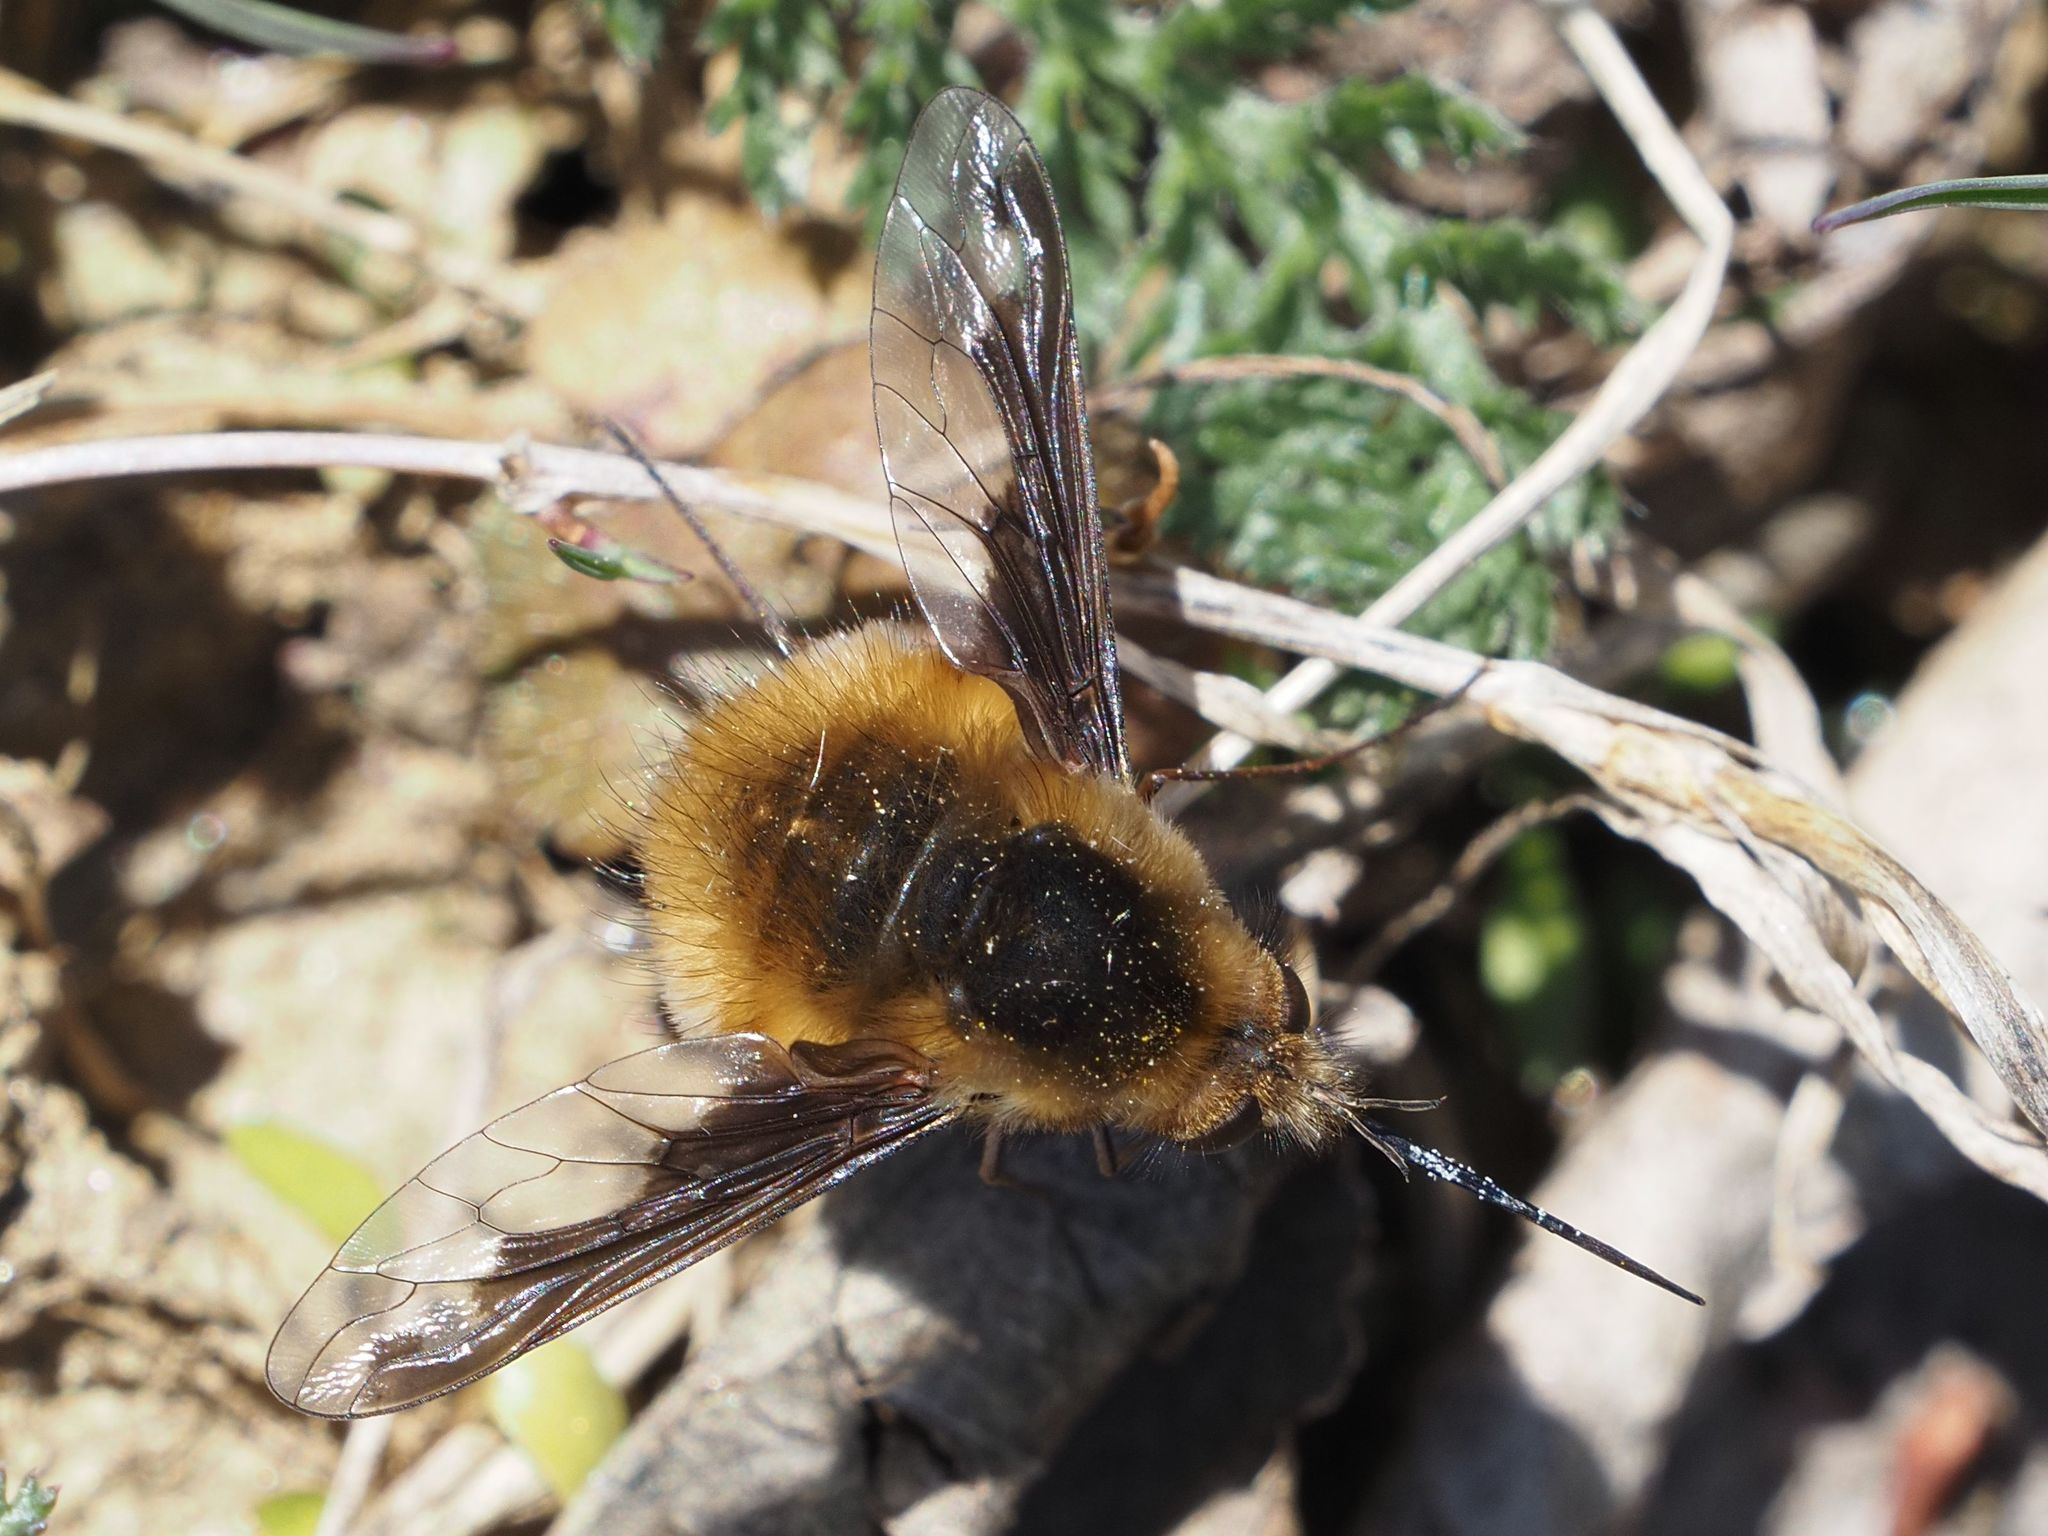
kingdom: Animalia
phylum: Arthropoda
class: Insecta
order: Diptera
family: Bombyliidae
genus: Bombylius
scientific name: Bombylius major
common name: Bee fly
